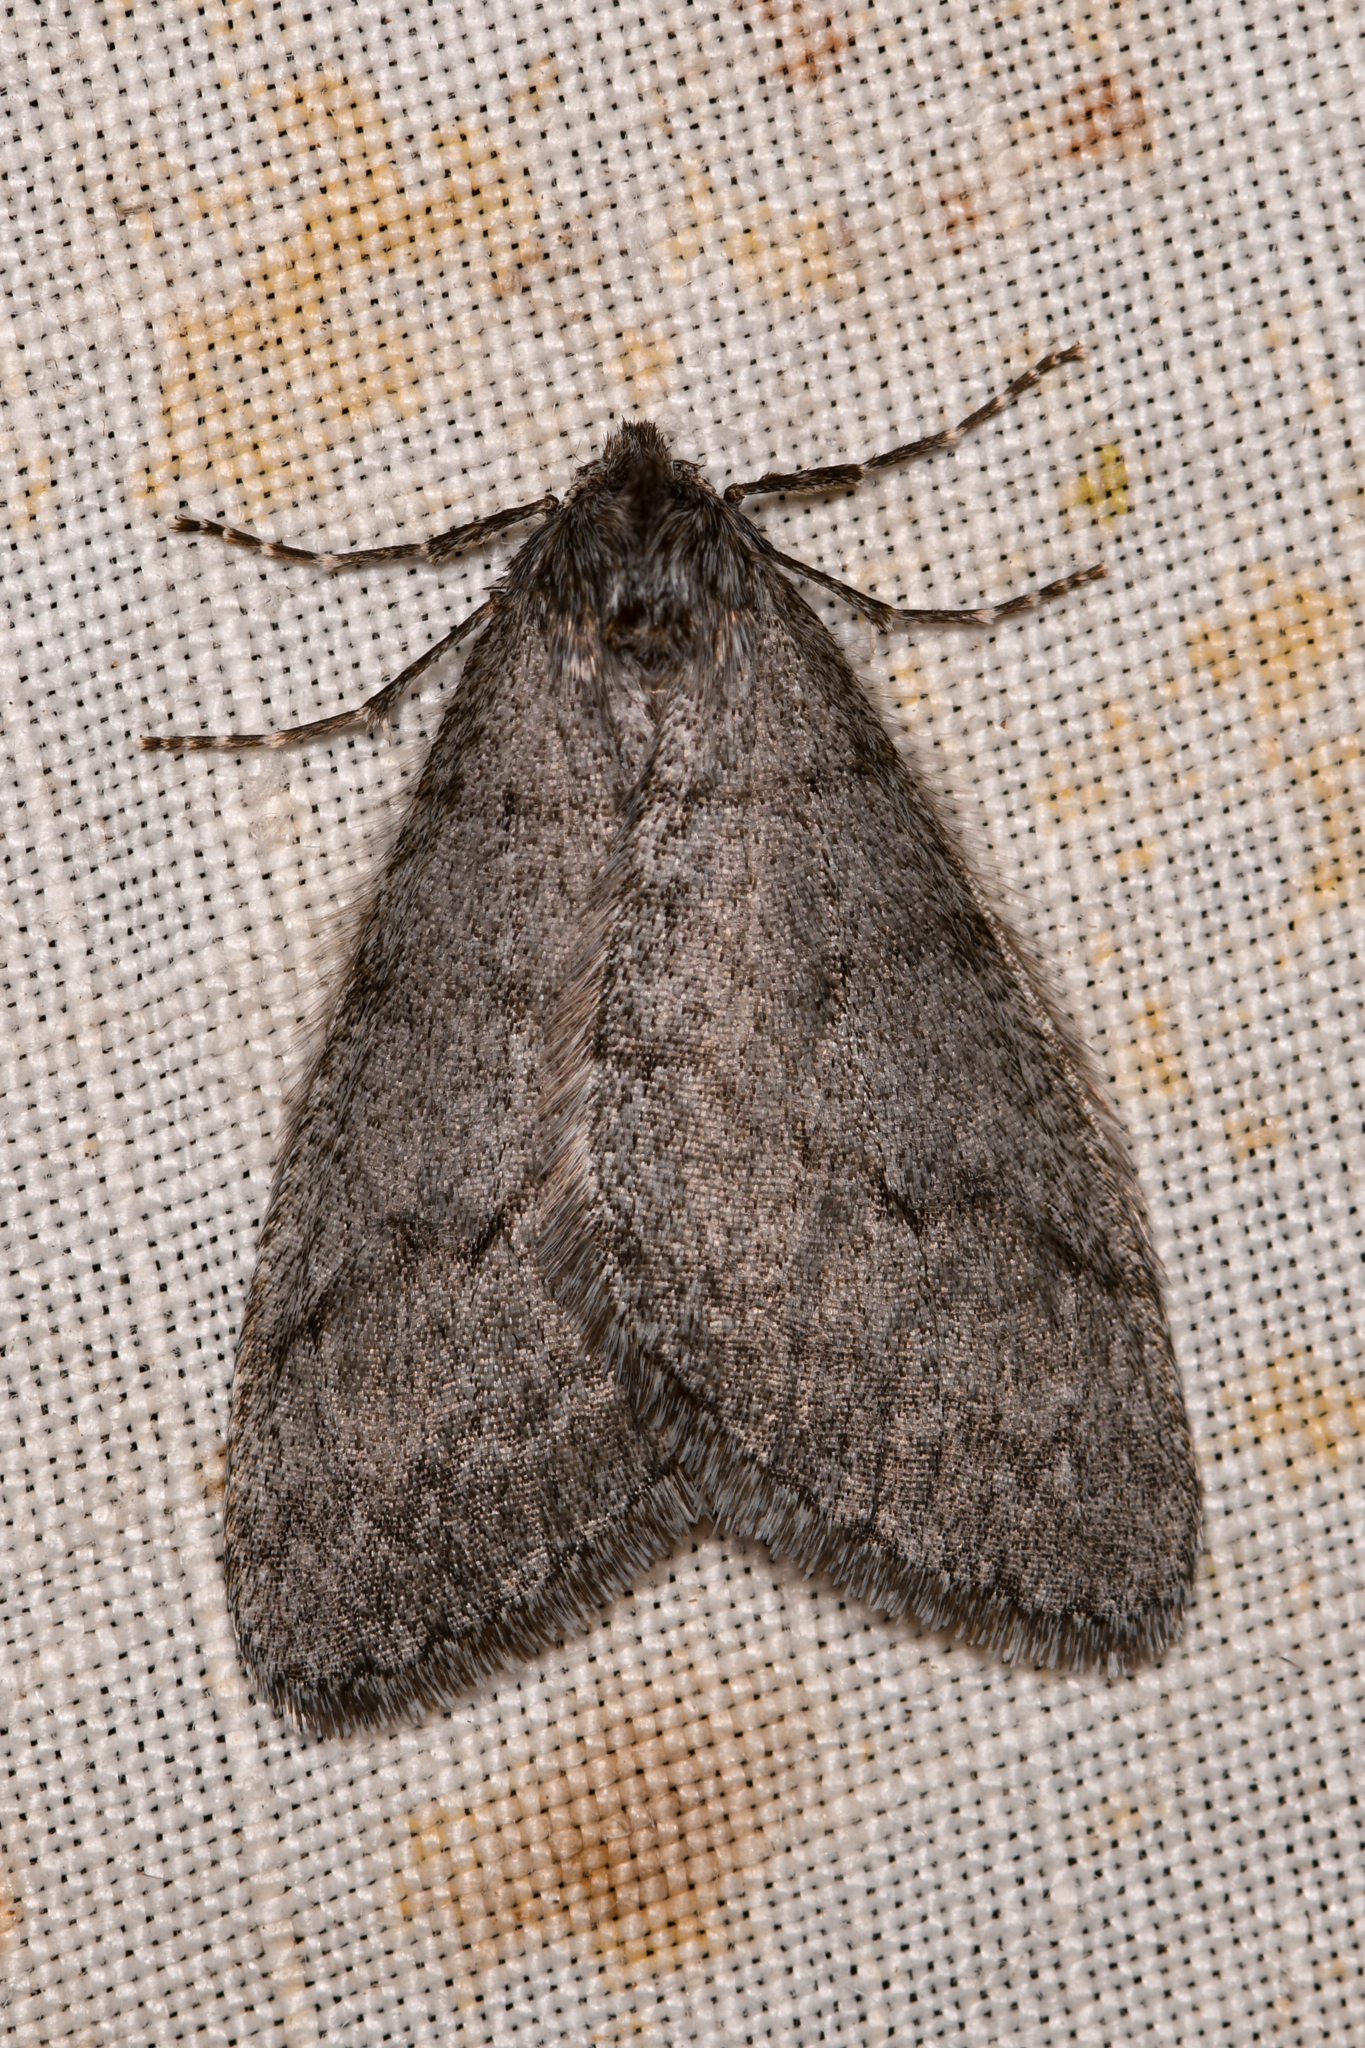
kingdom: Animalia
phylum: Arthropoda
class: Insecta
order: Lepidoptera
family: Geometridae
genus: Phigalia
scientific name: Phigalia plumogeraria
